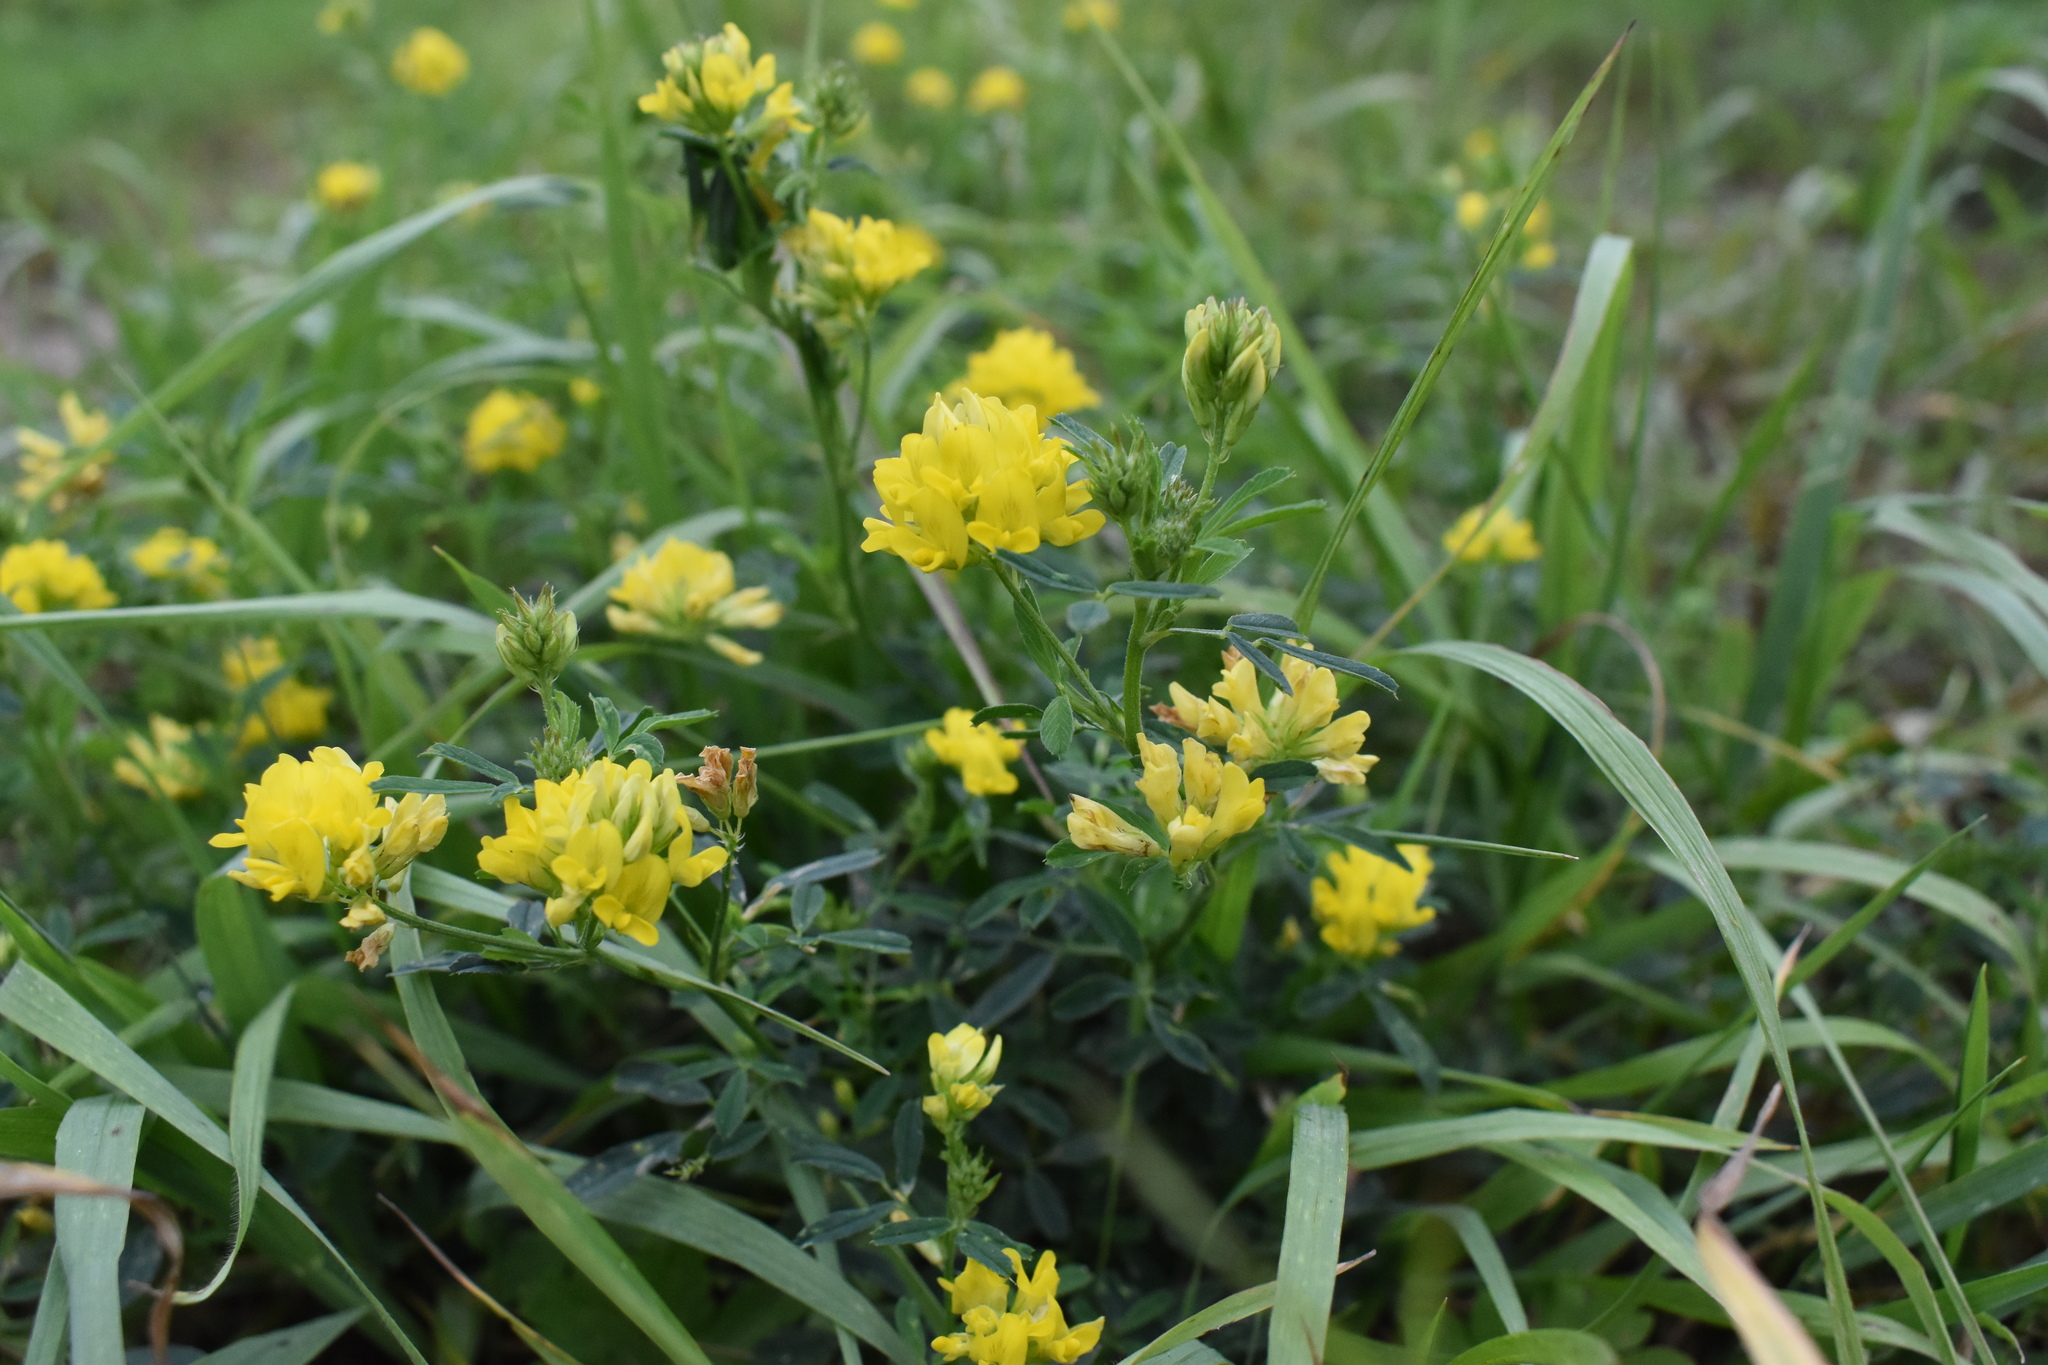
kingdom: Plantae
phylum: Tracheophyta
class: Magnoliopsida
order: Fabales
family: Fabaceae
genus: Medicago
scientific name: Medicago falcata
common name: Sickle medick
